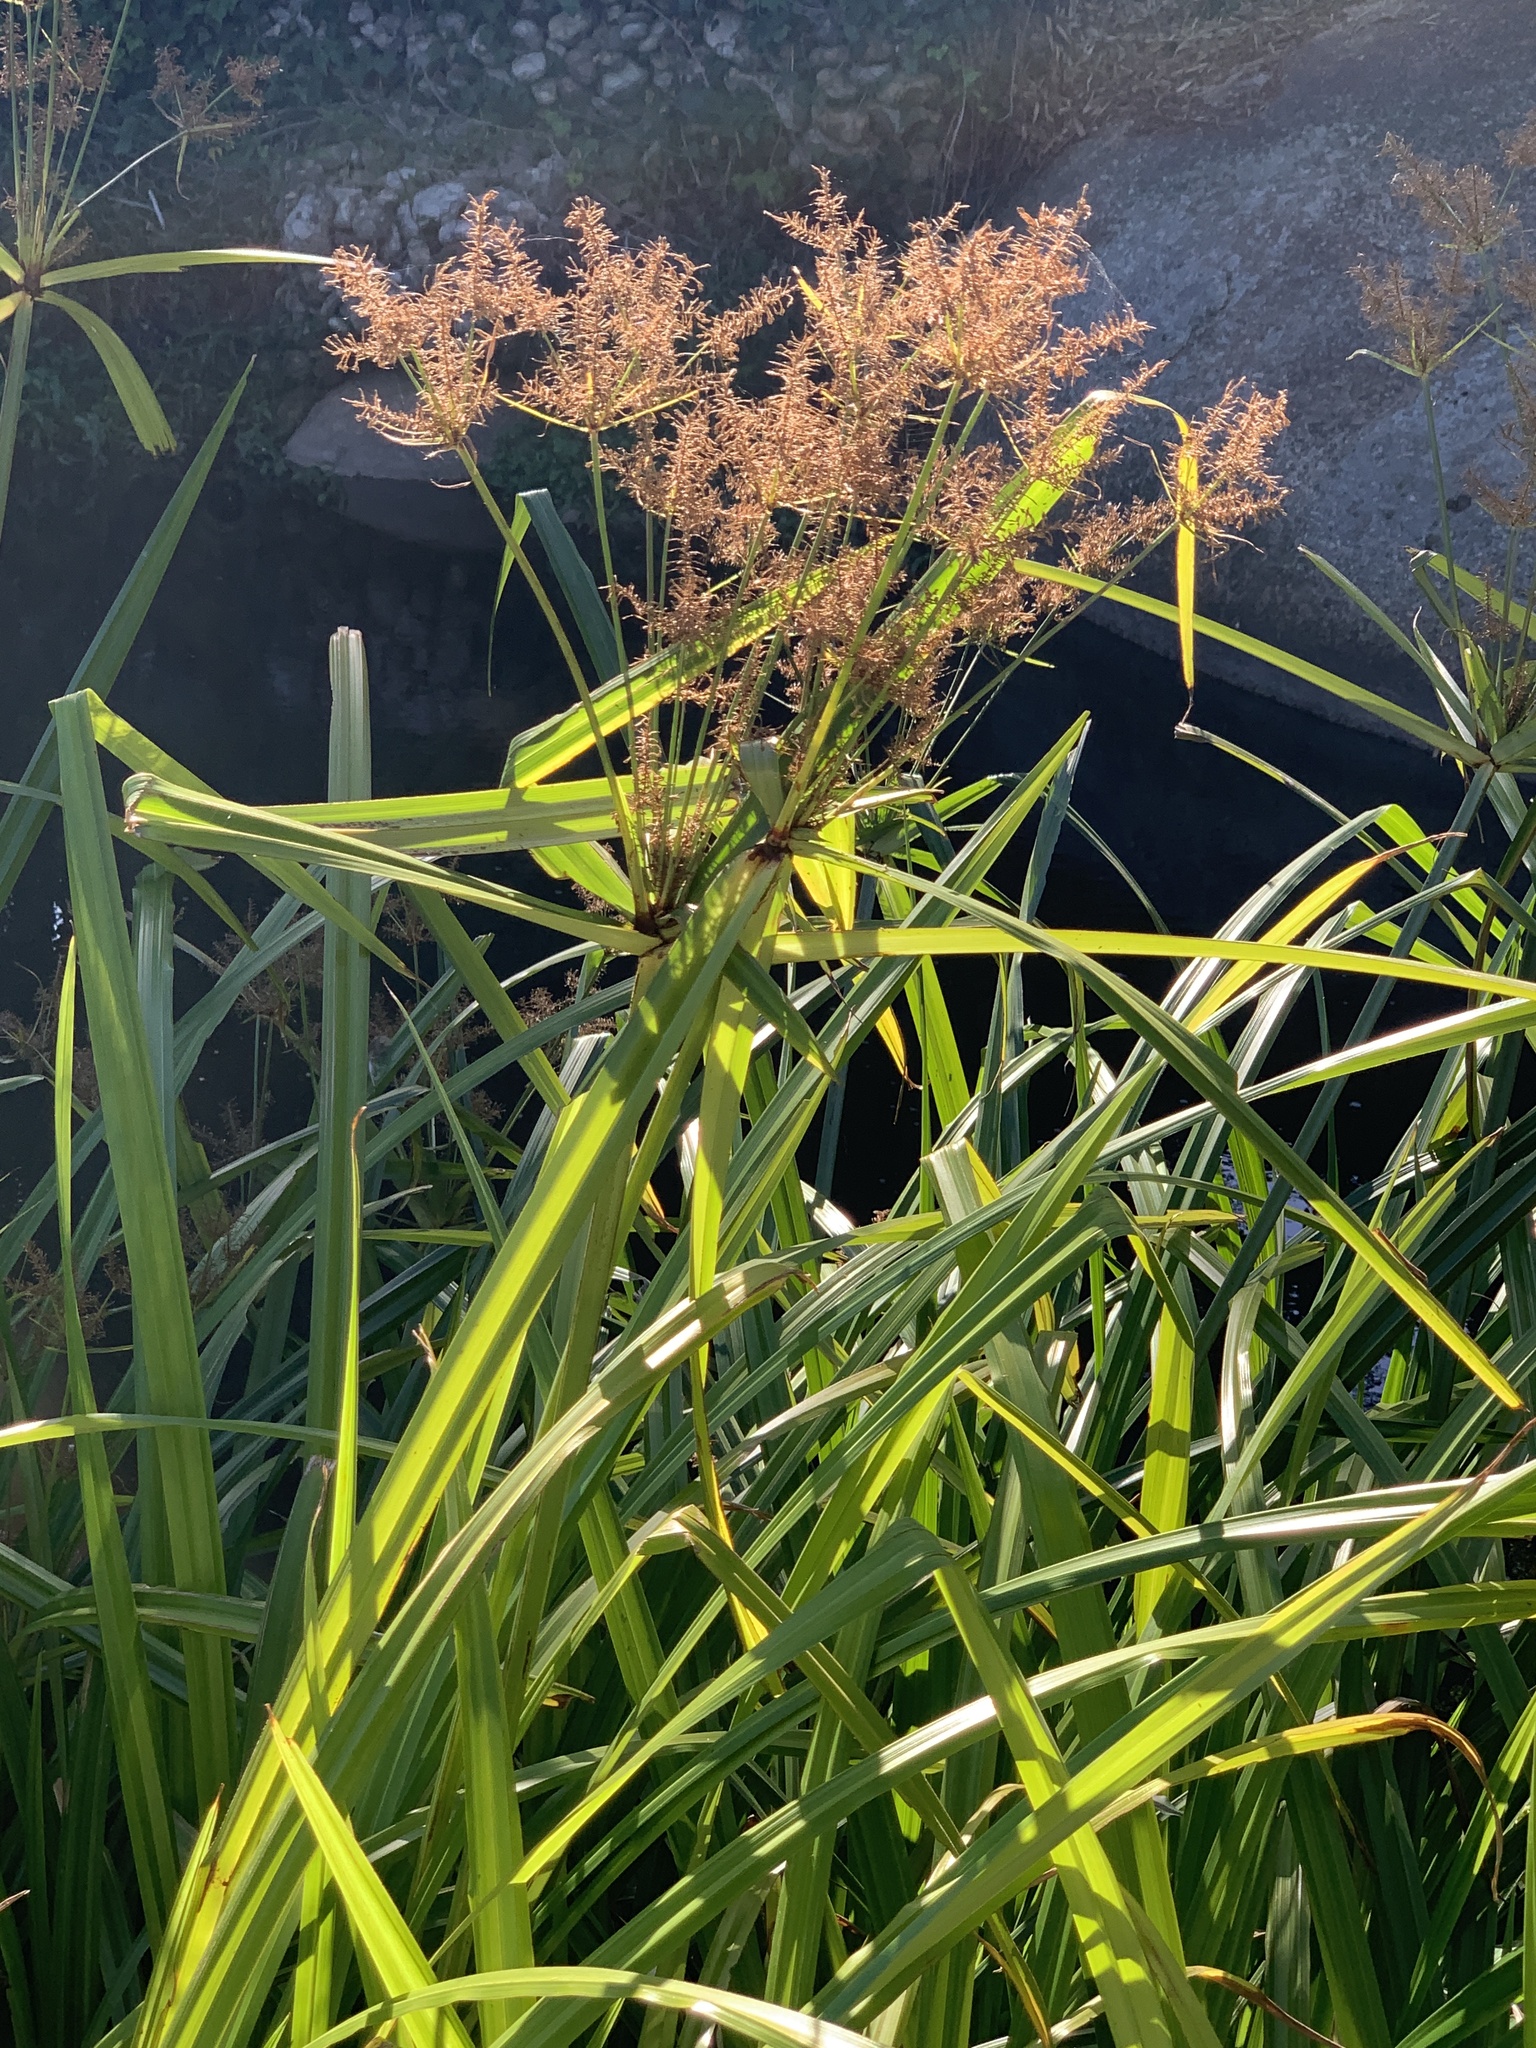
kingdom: Plantae
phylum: Tracheophyta
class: Liliopsida
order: Poales
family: Cyperaceae
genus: Cyperus
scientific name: Cyperus dives
